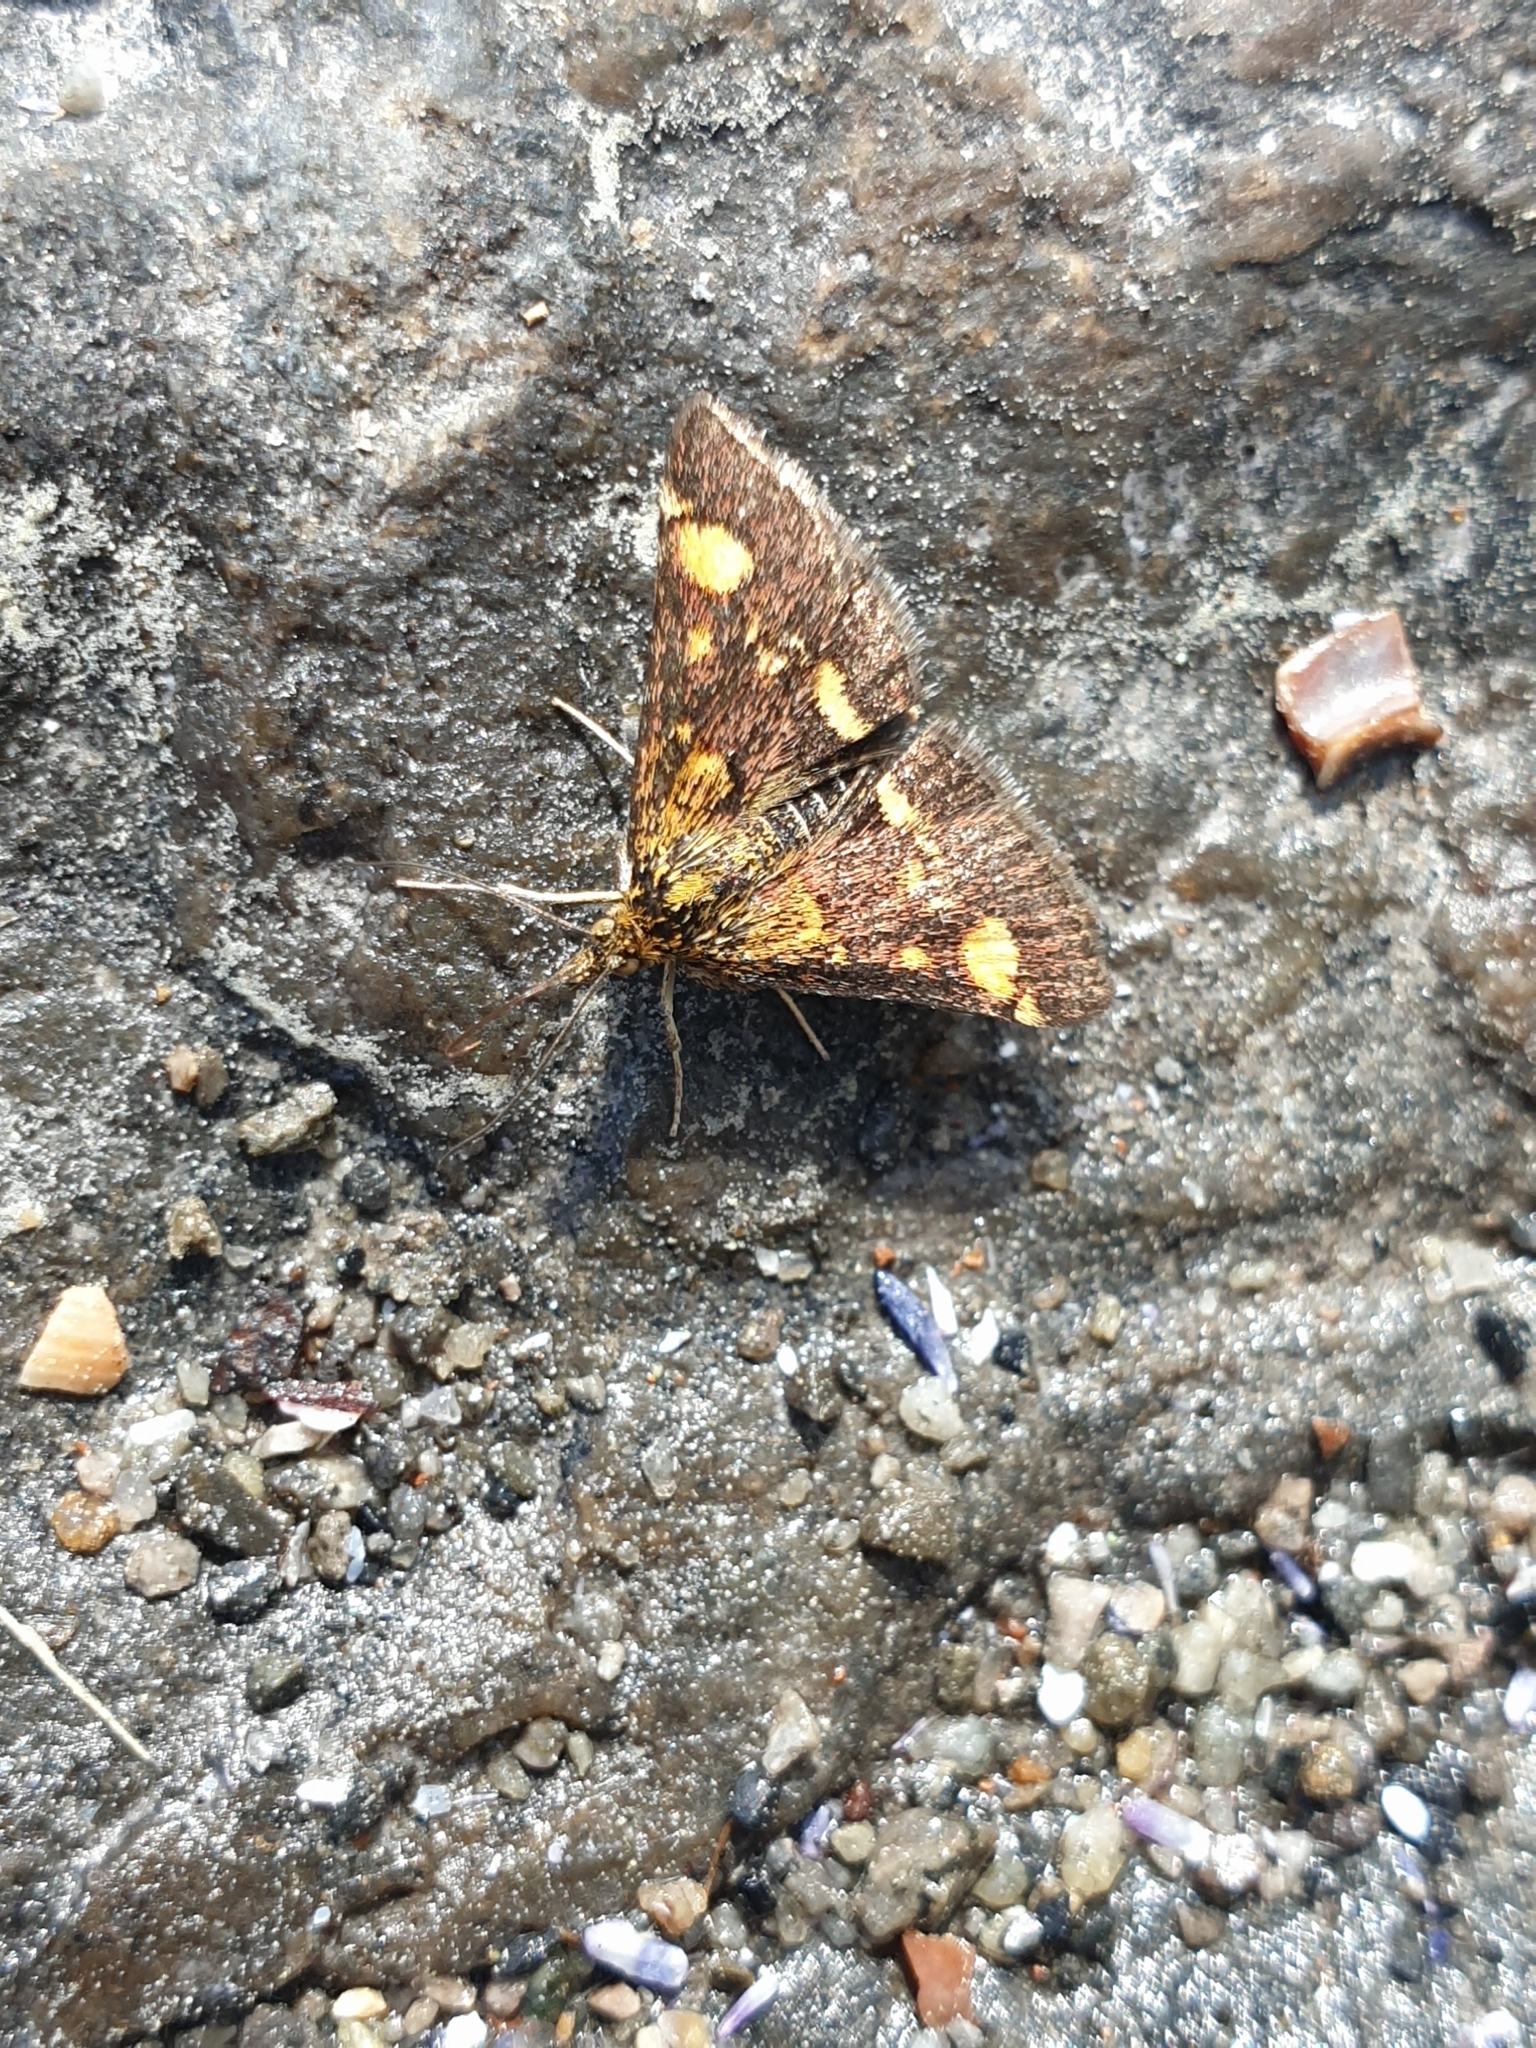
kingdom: Animalia
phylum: Arthropoda
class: Insecta
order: Lepidoptera
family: Crambidae
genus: Pyrausta
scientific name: Pyrausta aurata
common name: Small purple & gold
